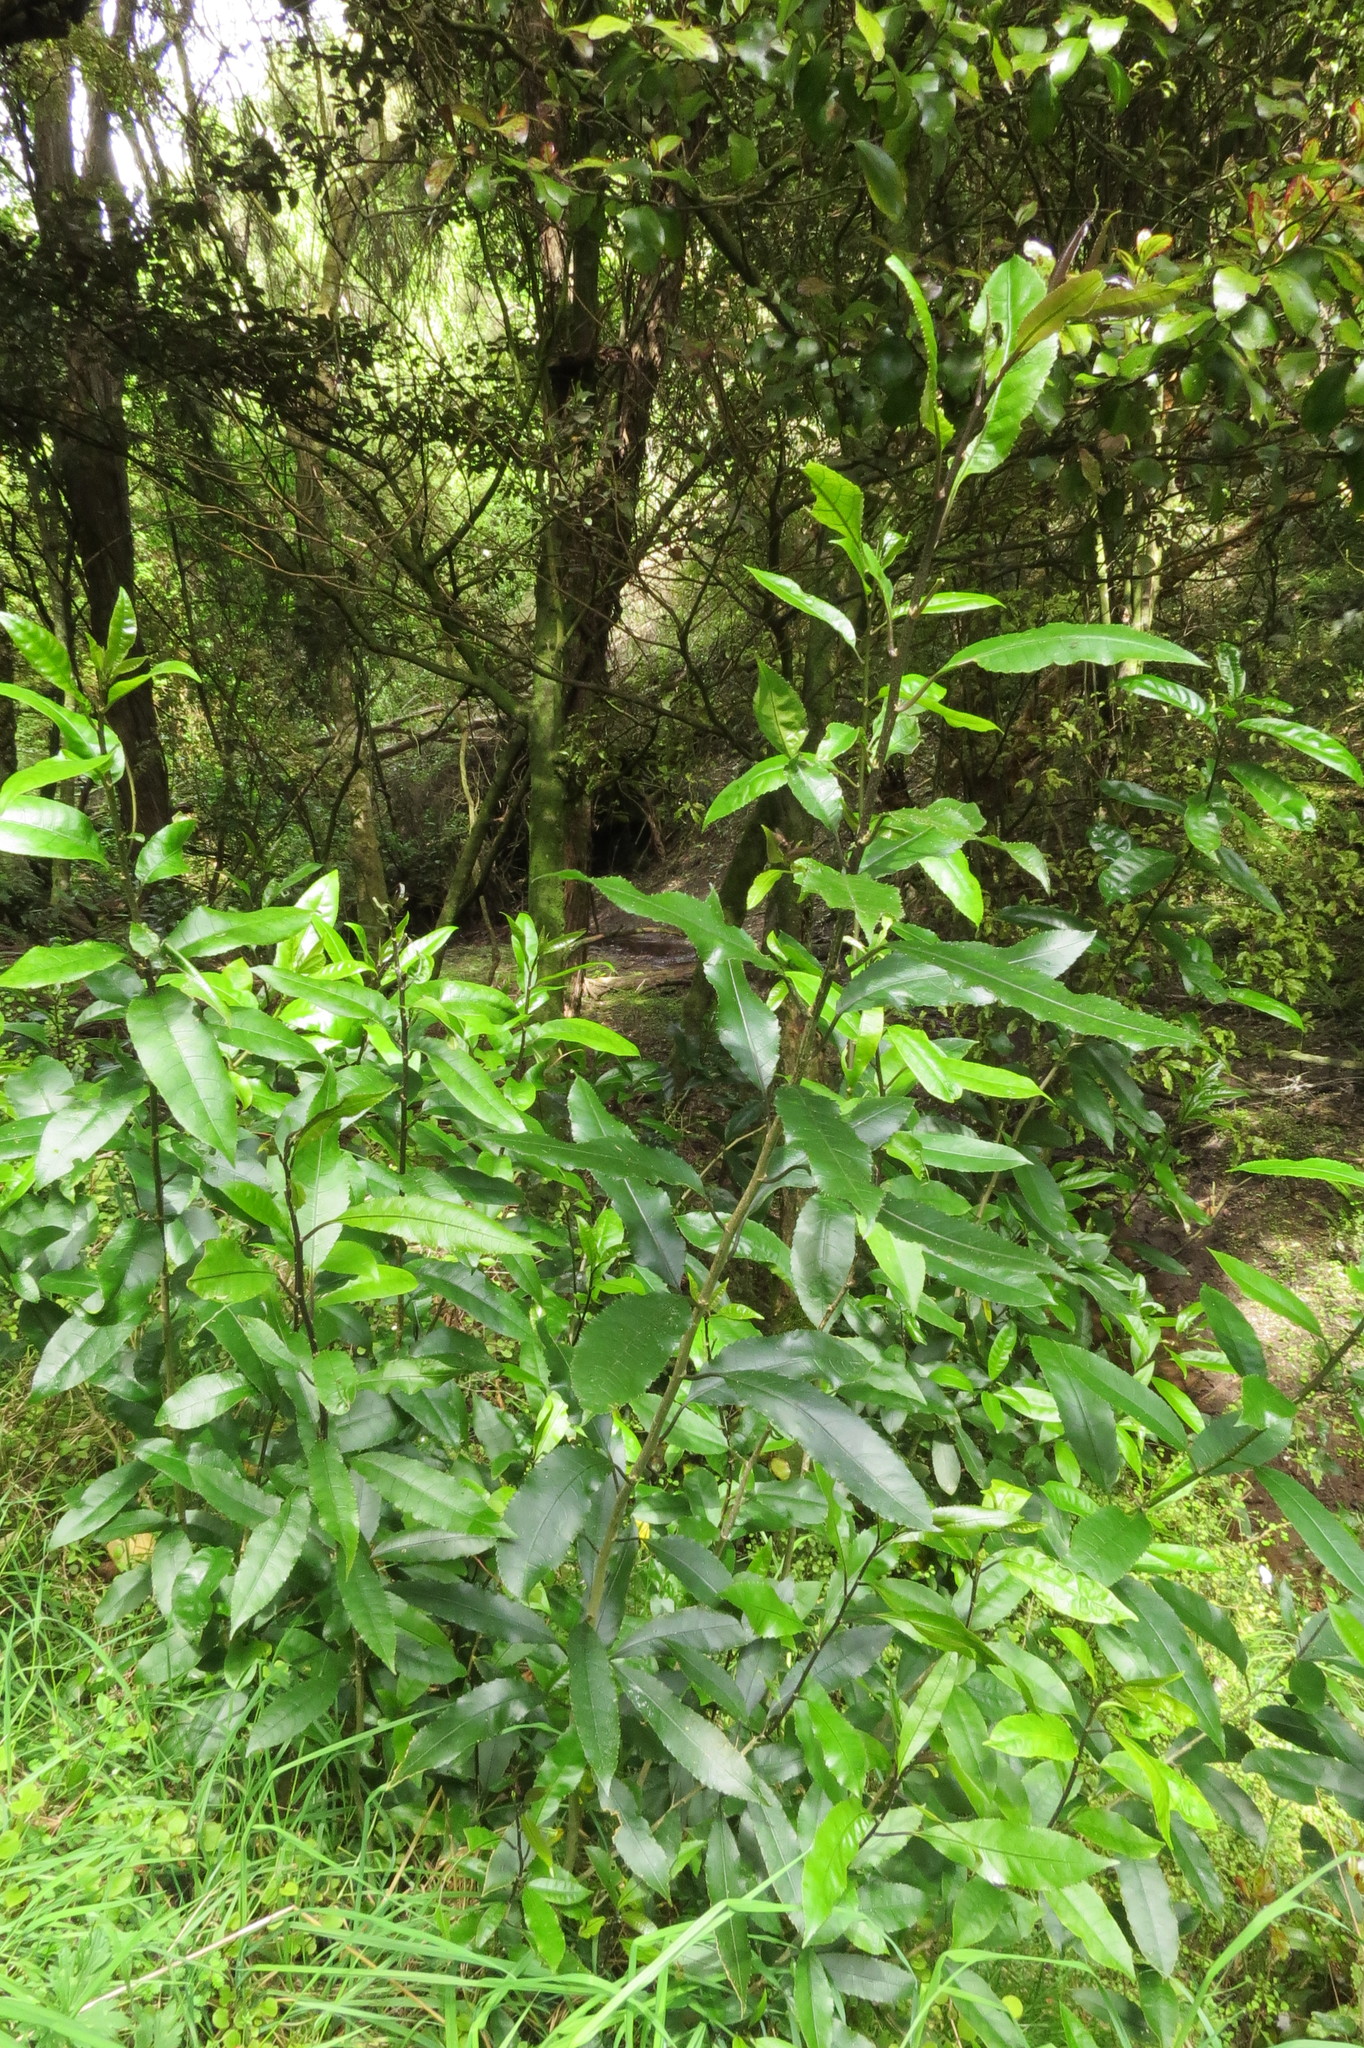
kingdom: Plantae
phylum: Tracheophyta
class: Magnoliopsida
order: Malpighiales
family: Violaceae
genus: Melicytus
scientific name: Melicytus ramiflorus
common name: Mahoe
